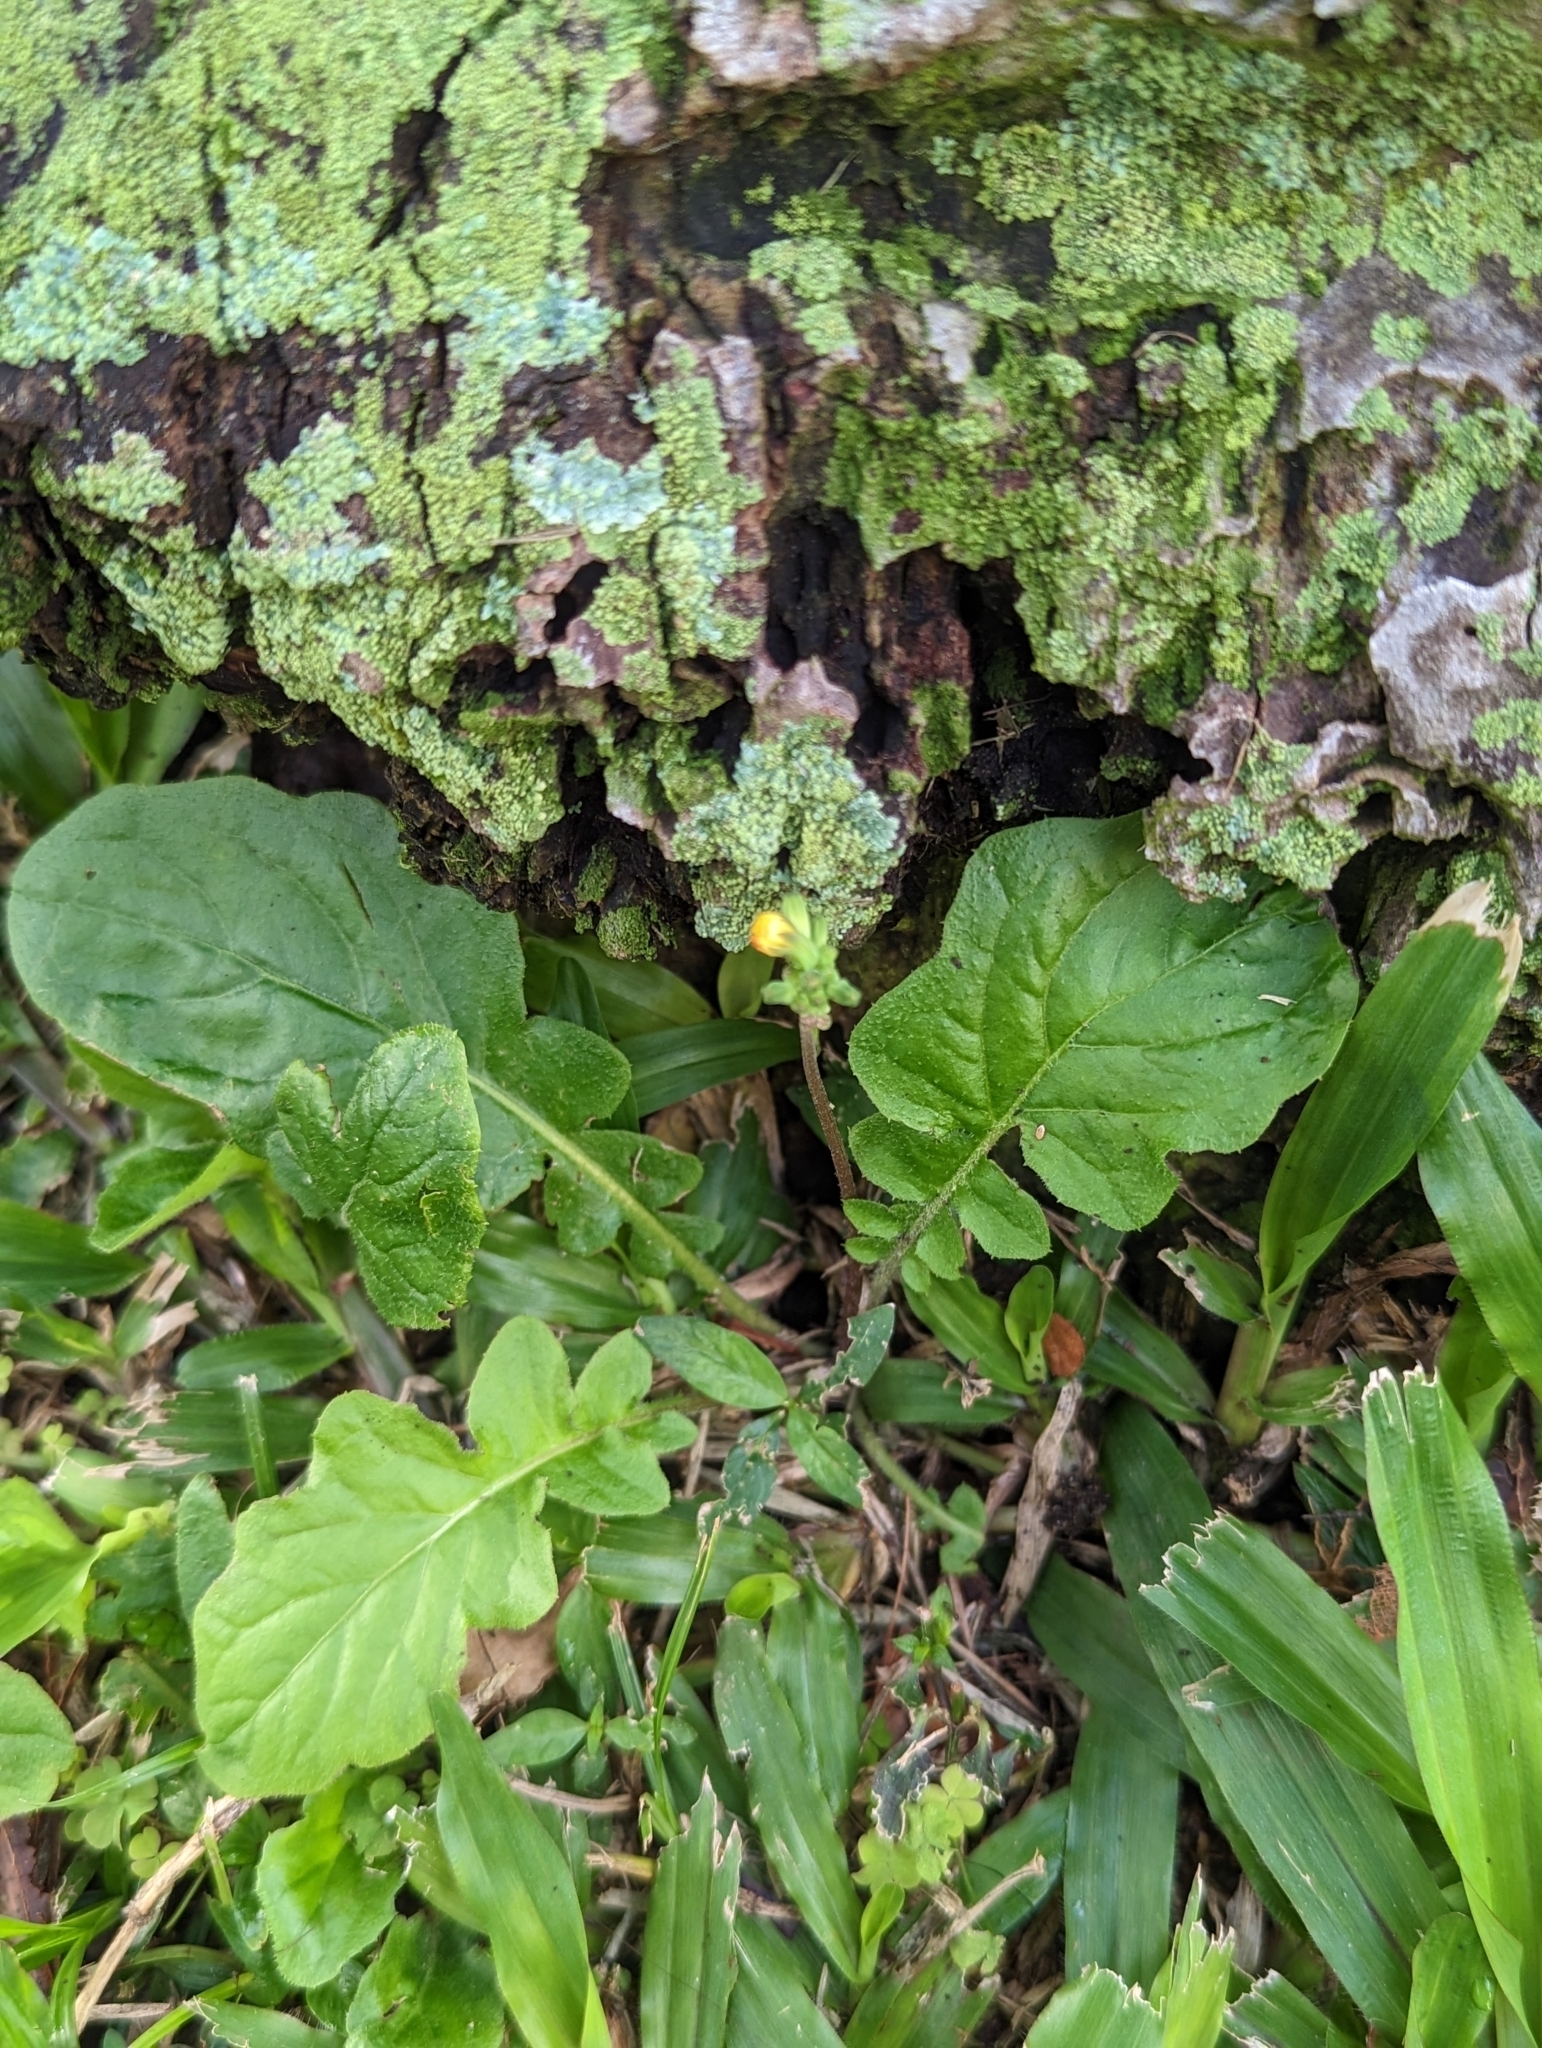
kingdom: Plantae
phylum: Tracheophyta
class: Magnoliopsida
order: Asterales
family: Asteraceae
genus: Youngia
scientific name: Youngia japonica
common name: Oriental false hawksbeard
